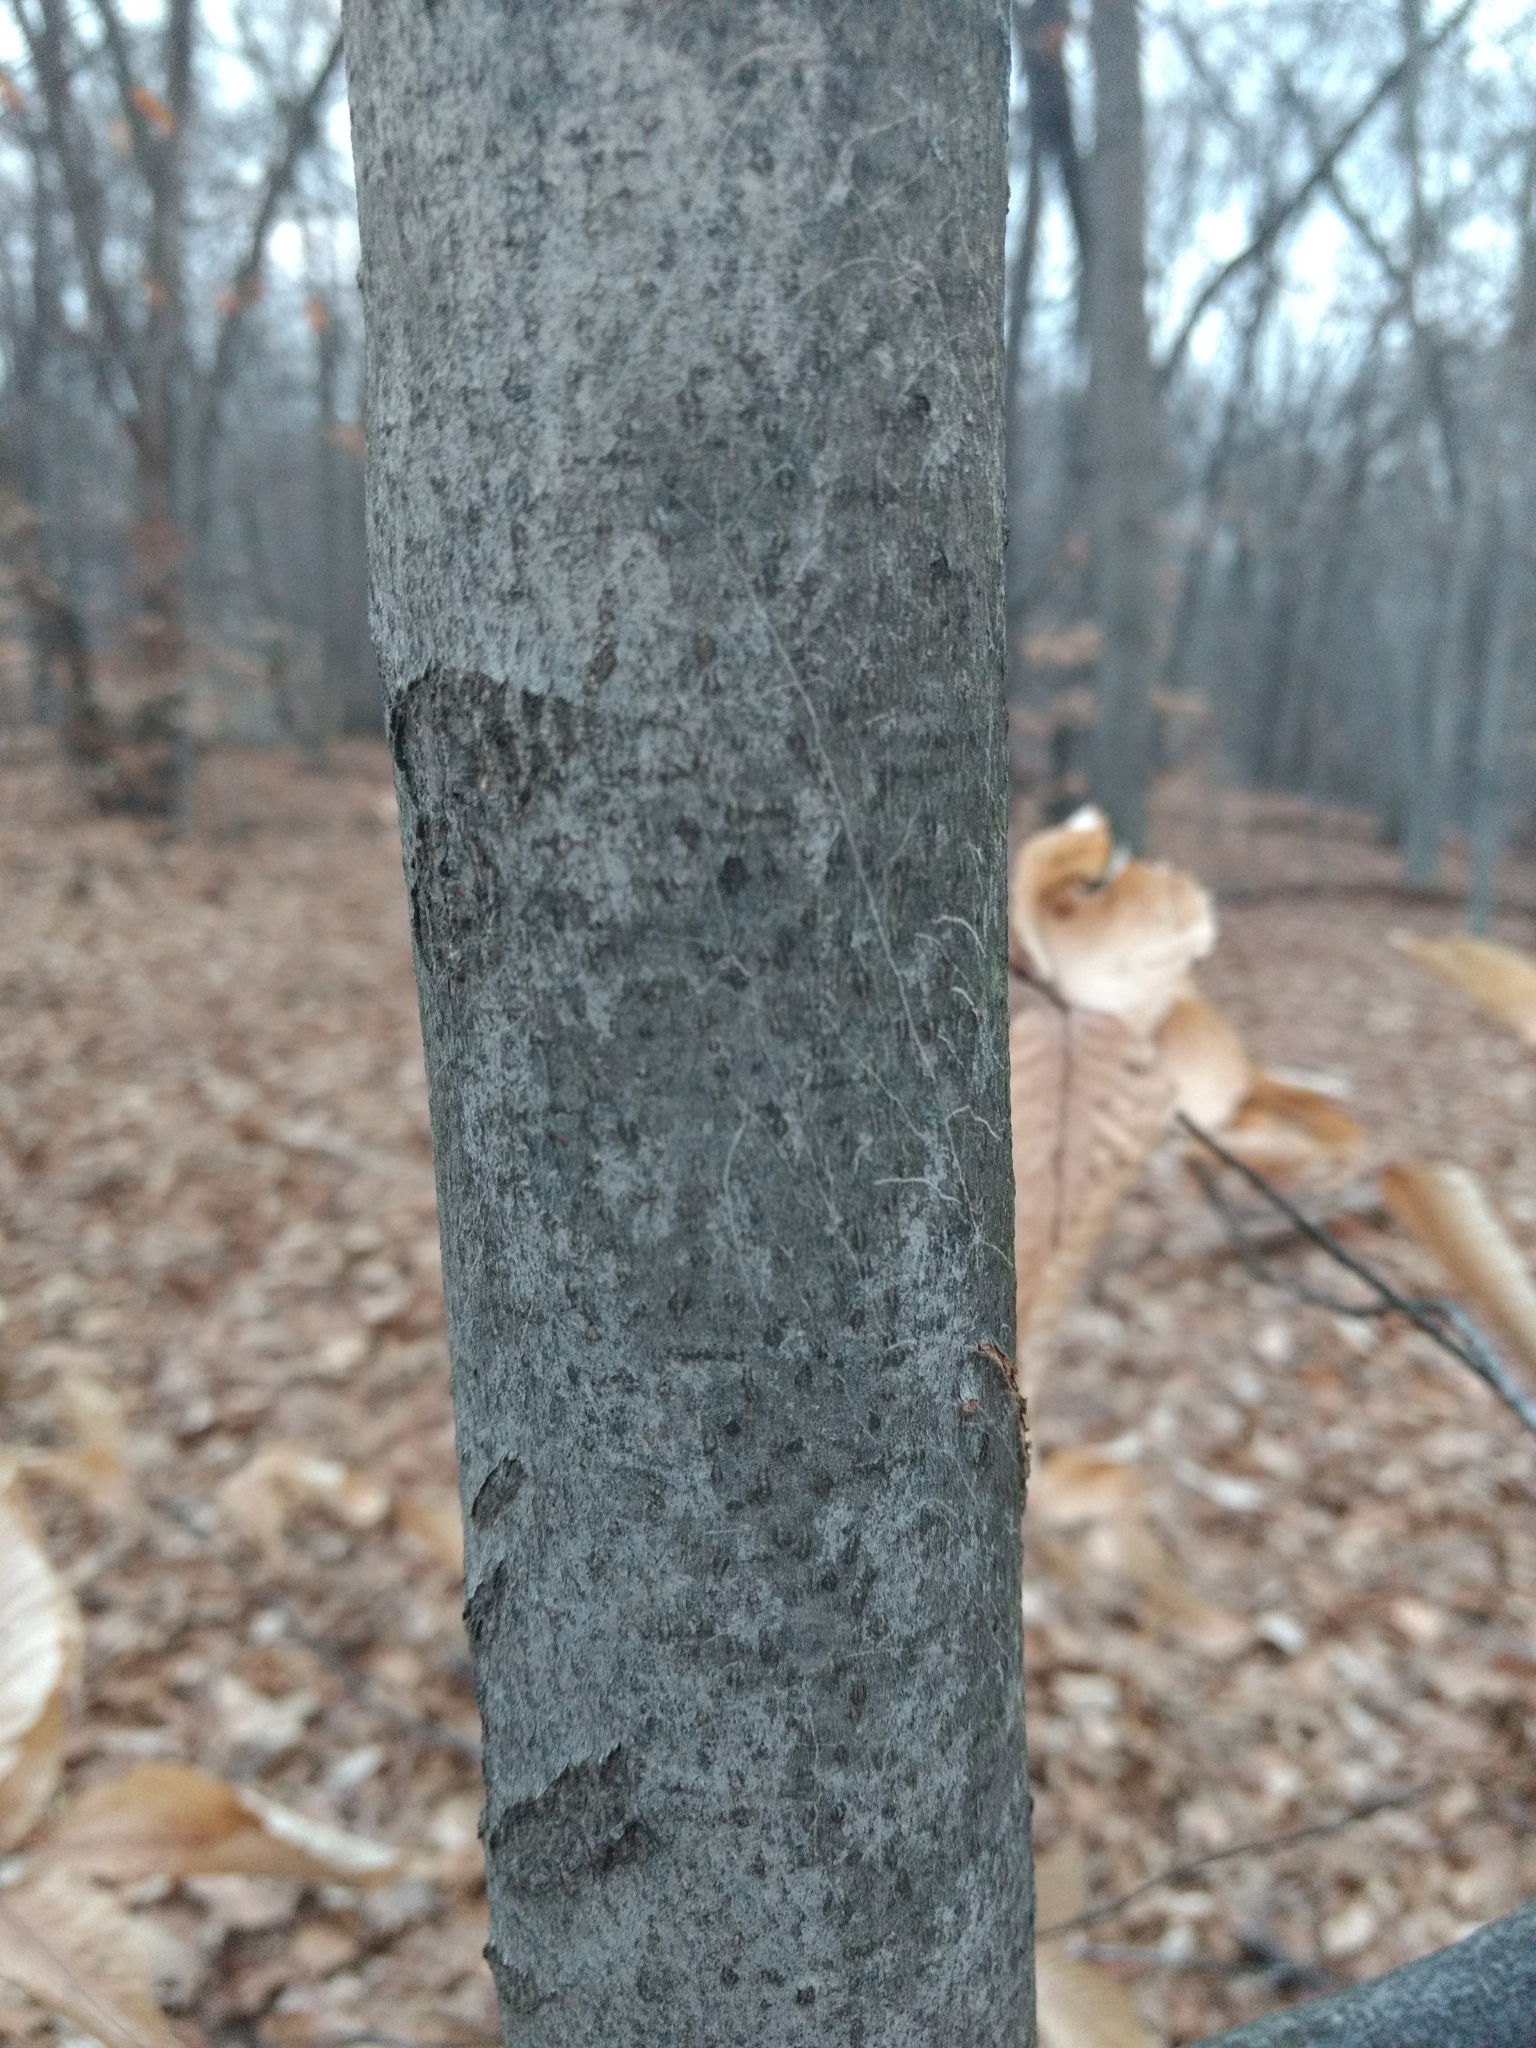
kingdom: Plantae
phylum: Tracheophyta
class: Magnoliopsida
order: Fagales
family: Fagaceae
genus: Fagus
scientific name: Fagus grandifolia
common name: American beech
